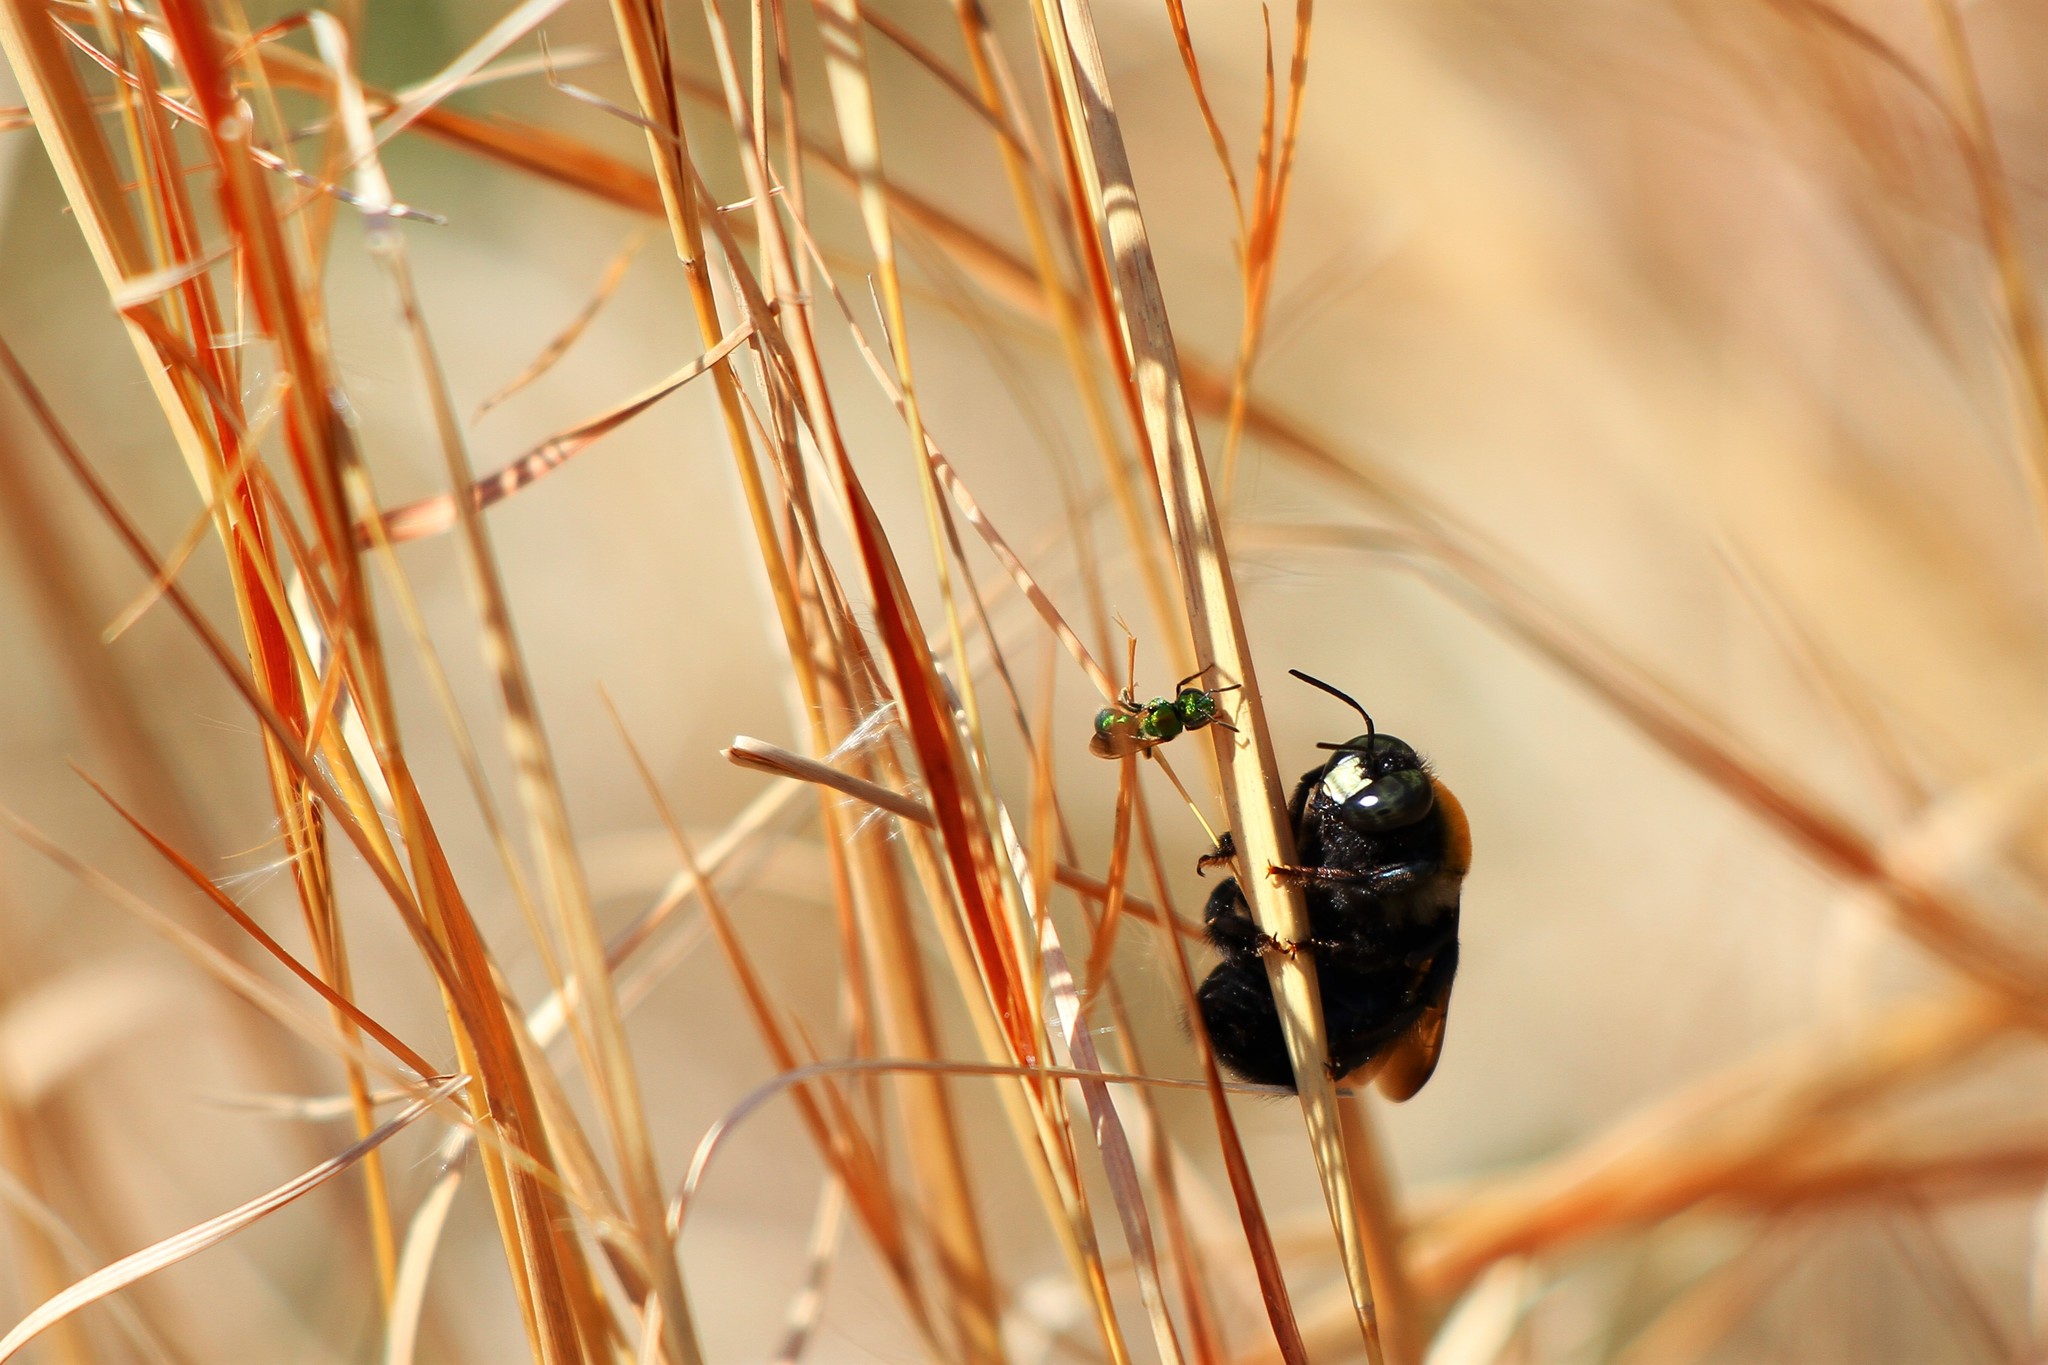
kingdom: Animalia
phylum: Arthropoda
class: Insecta
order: Hymenoptera
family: Apidae
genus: Xylocopa
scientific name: Xylocopa virginica
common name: Carpenter bee
